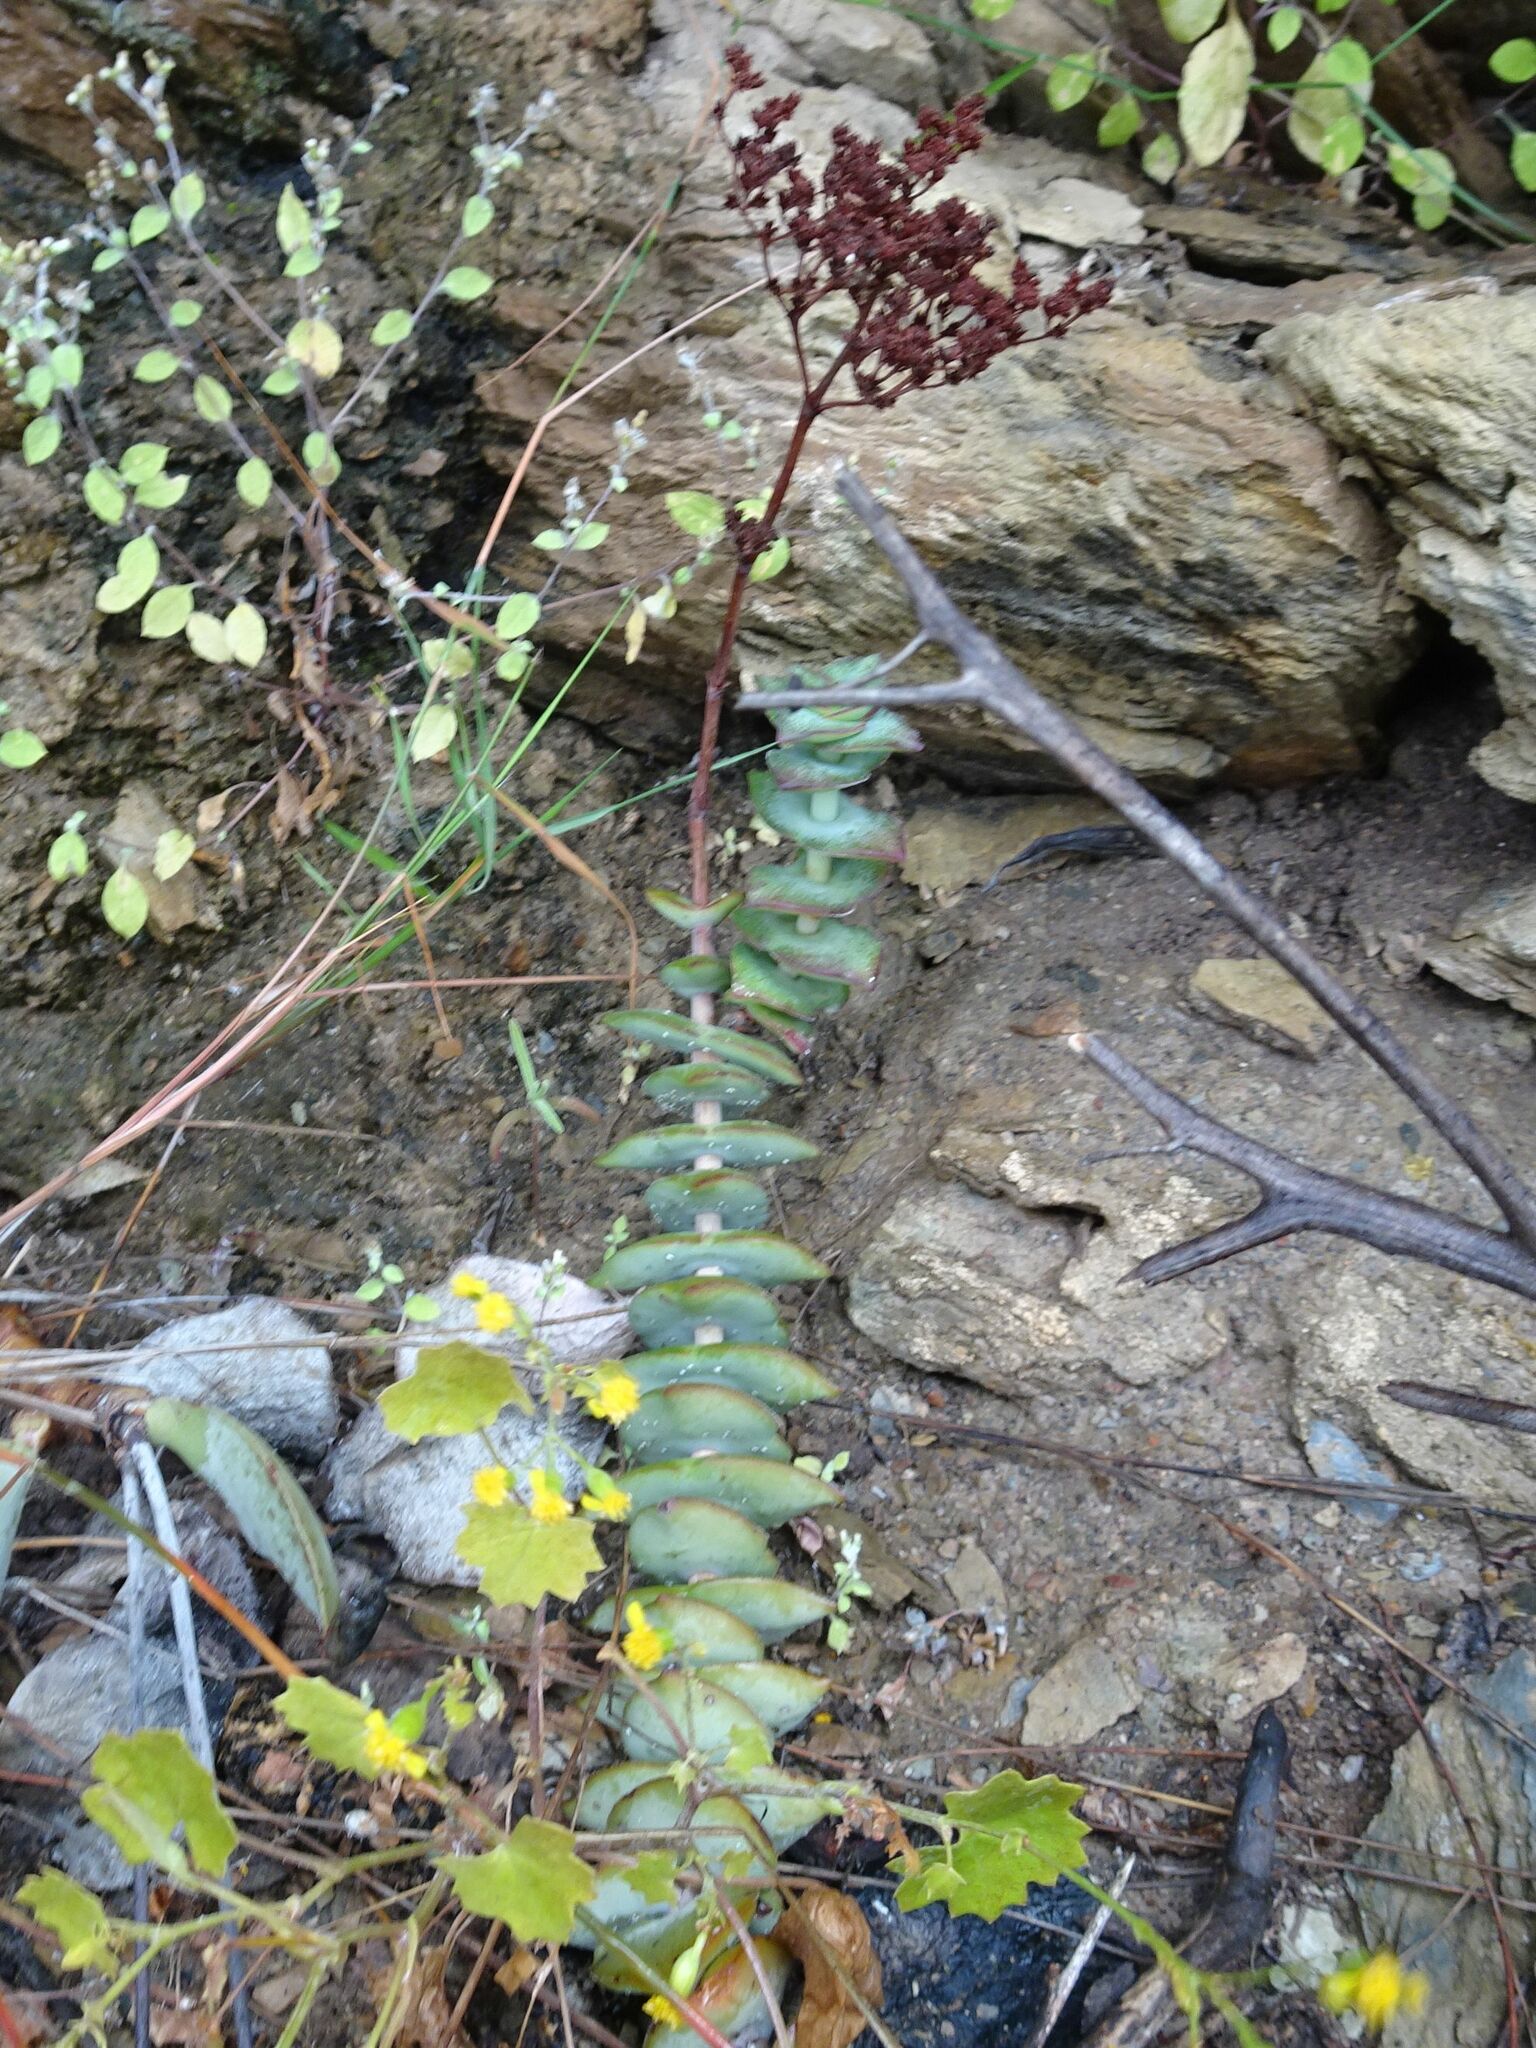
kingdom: Plantae
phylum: Tracheophyta
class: Magnoliopsida
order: Saxifragales
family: Crassulaceae
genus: Crassula
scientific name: Crassula perforata
